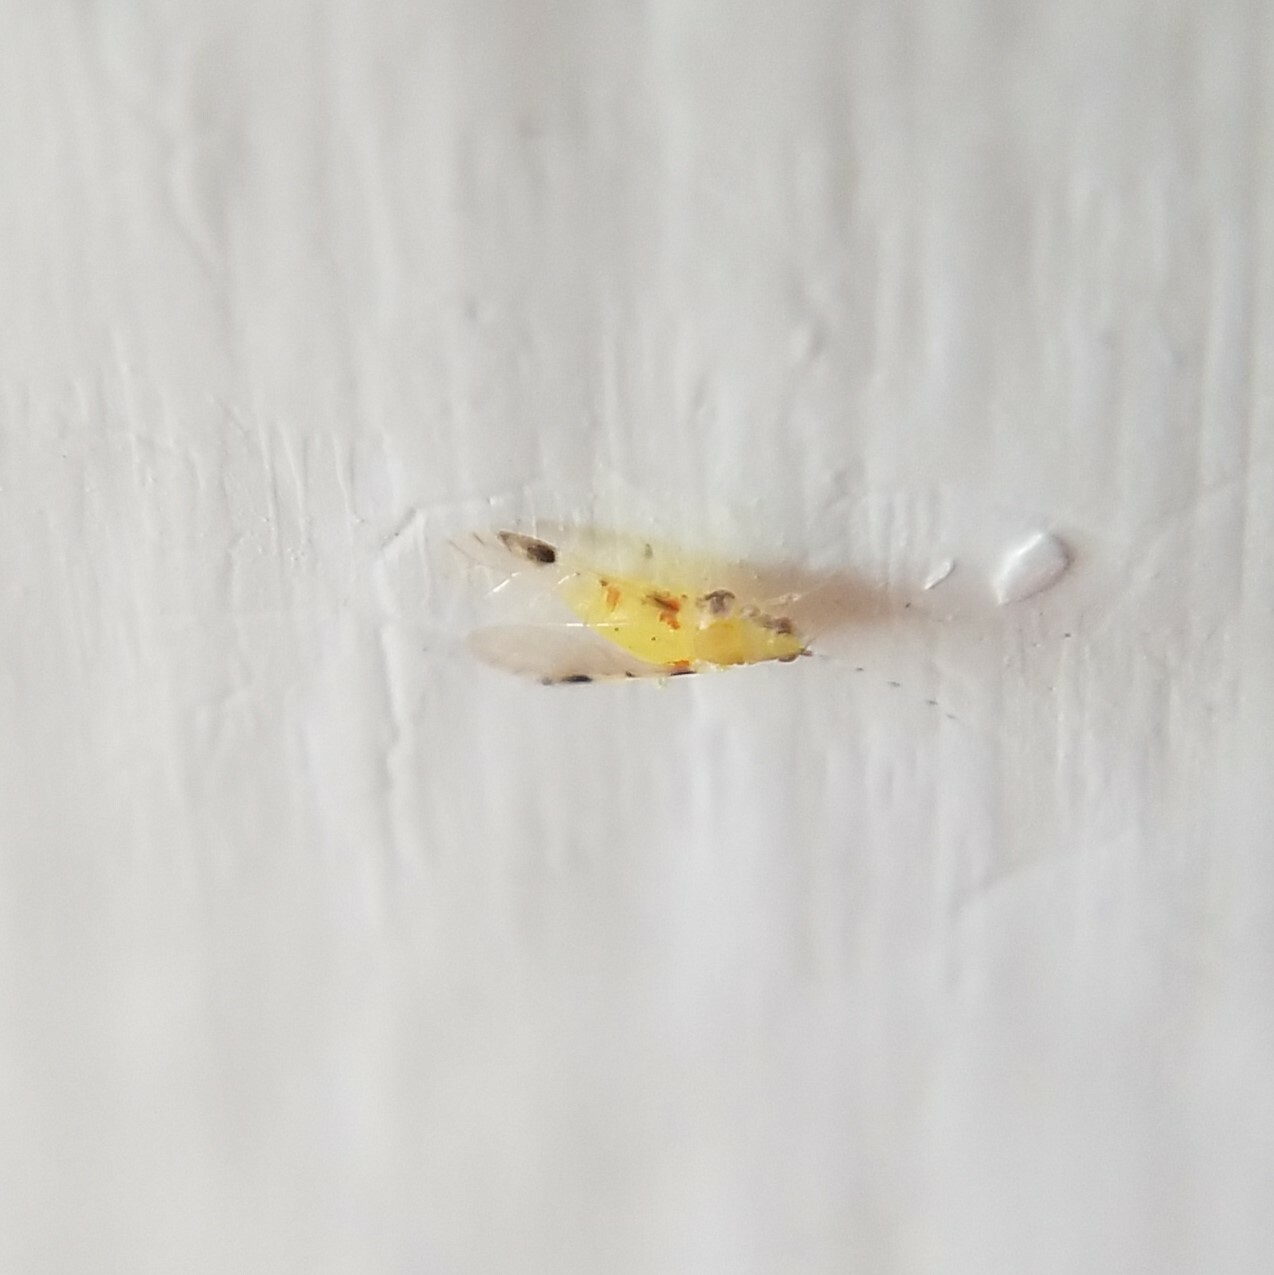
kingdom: Animalia
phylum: Arthropoda
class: Insecta
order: Hemiptera
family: Aphididae
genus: Monellia
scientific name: Monellia microsetosa
